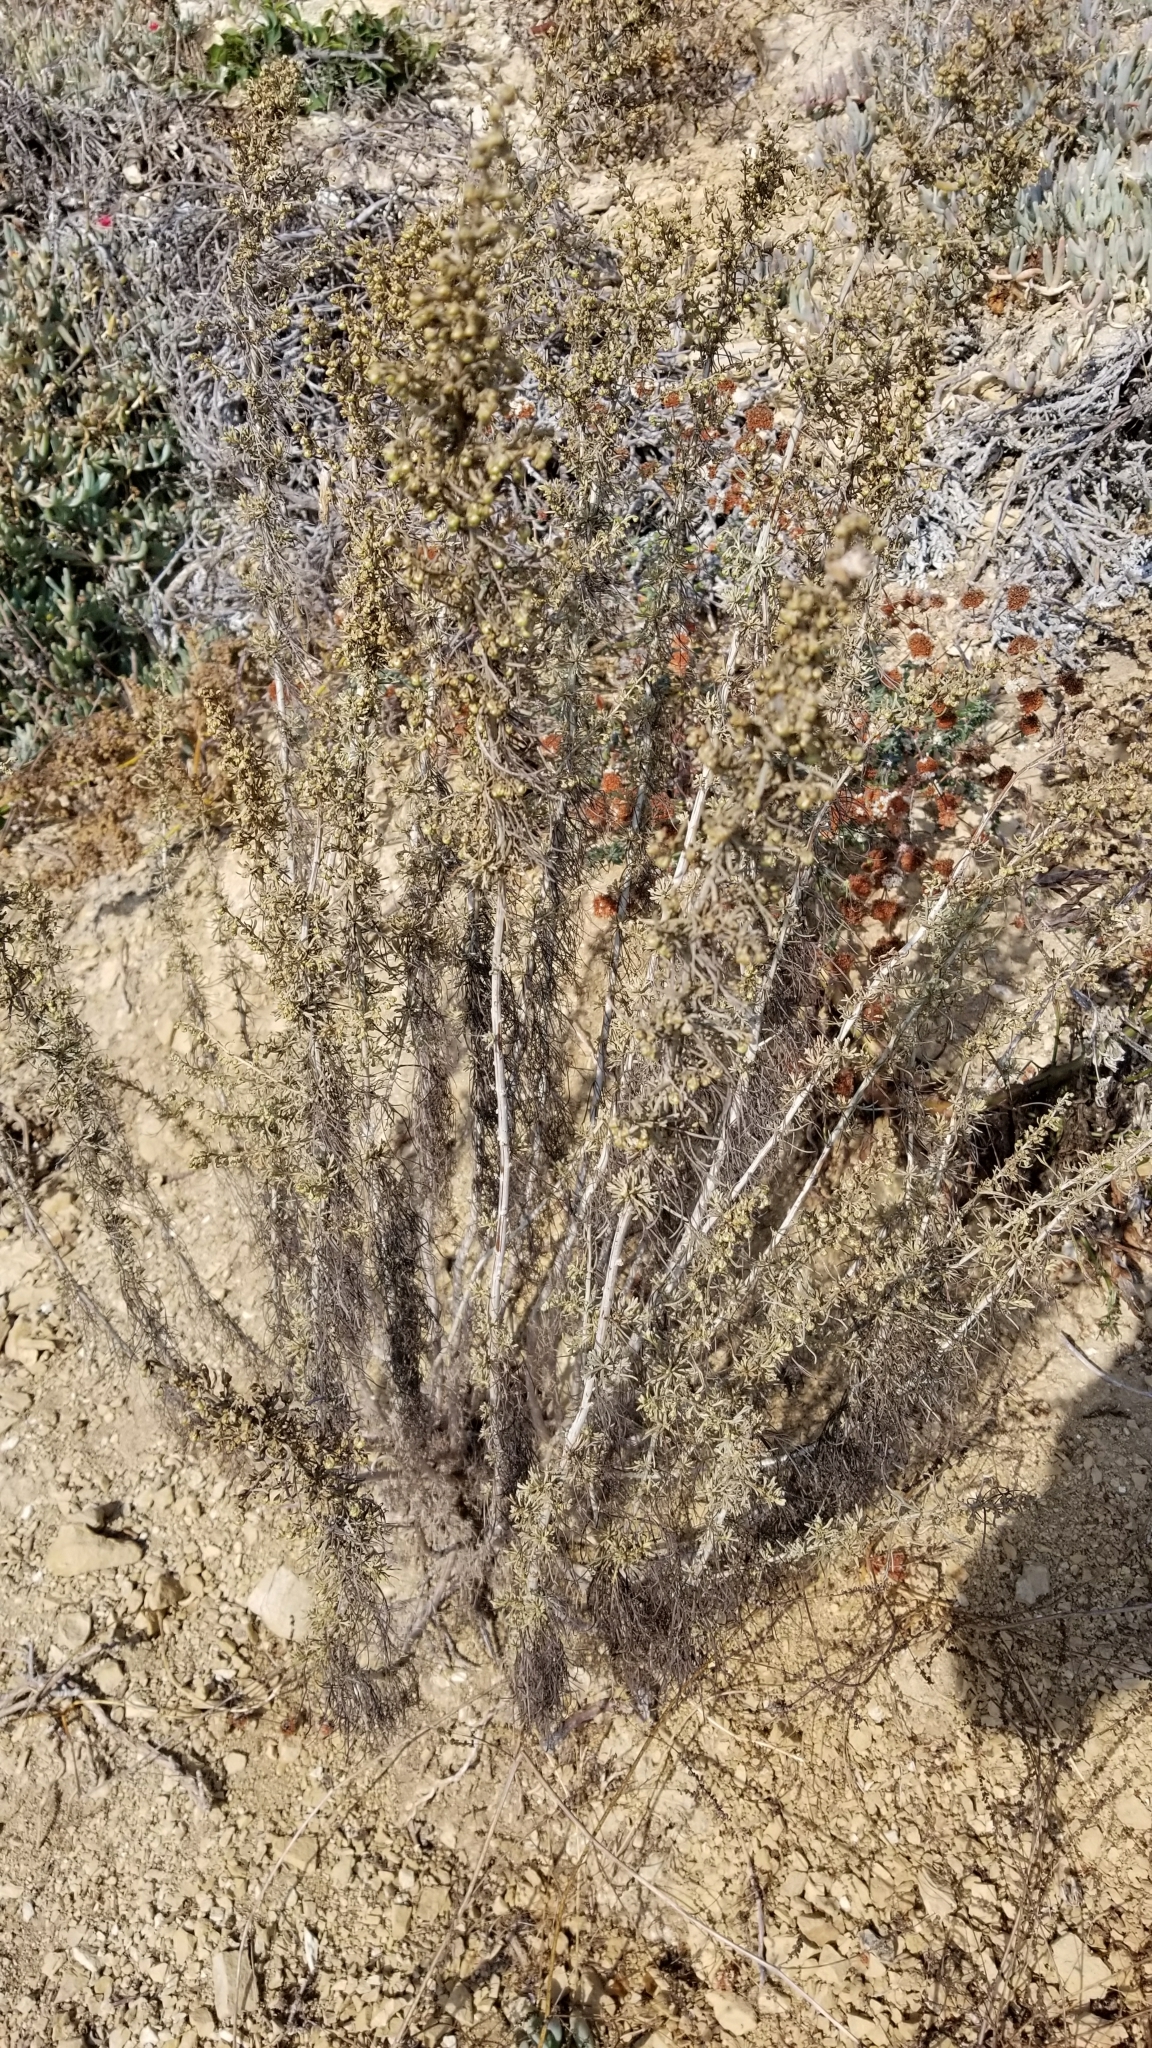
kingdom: Plantae
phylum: Tracheophyta
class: Magnoliopsida
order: Caryophyllales
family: Polygonaceae
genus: Eriogonum
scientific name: Eriogonum fasciculatum
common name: California wild buckwheat
